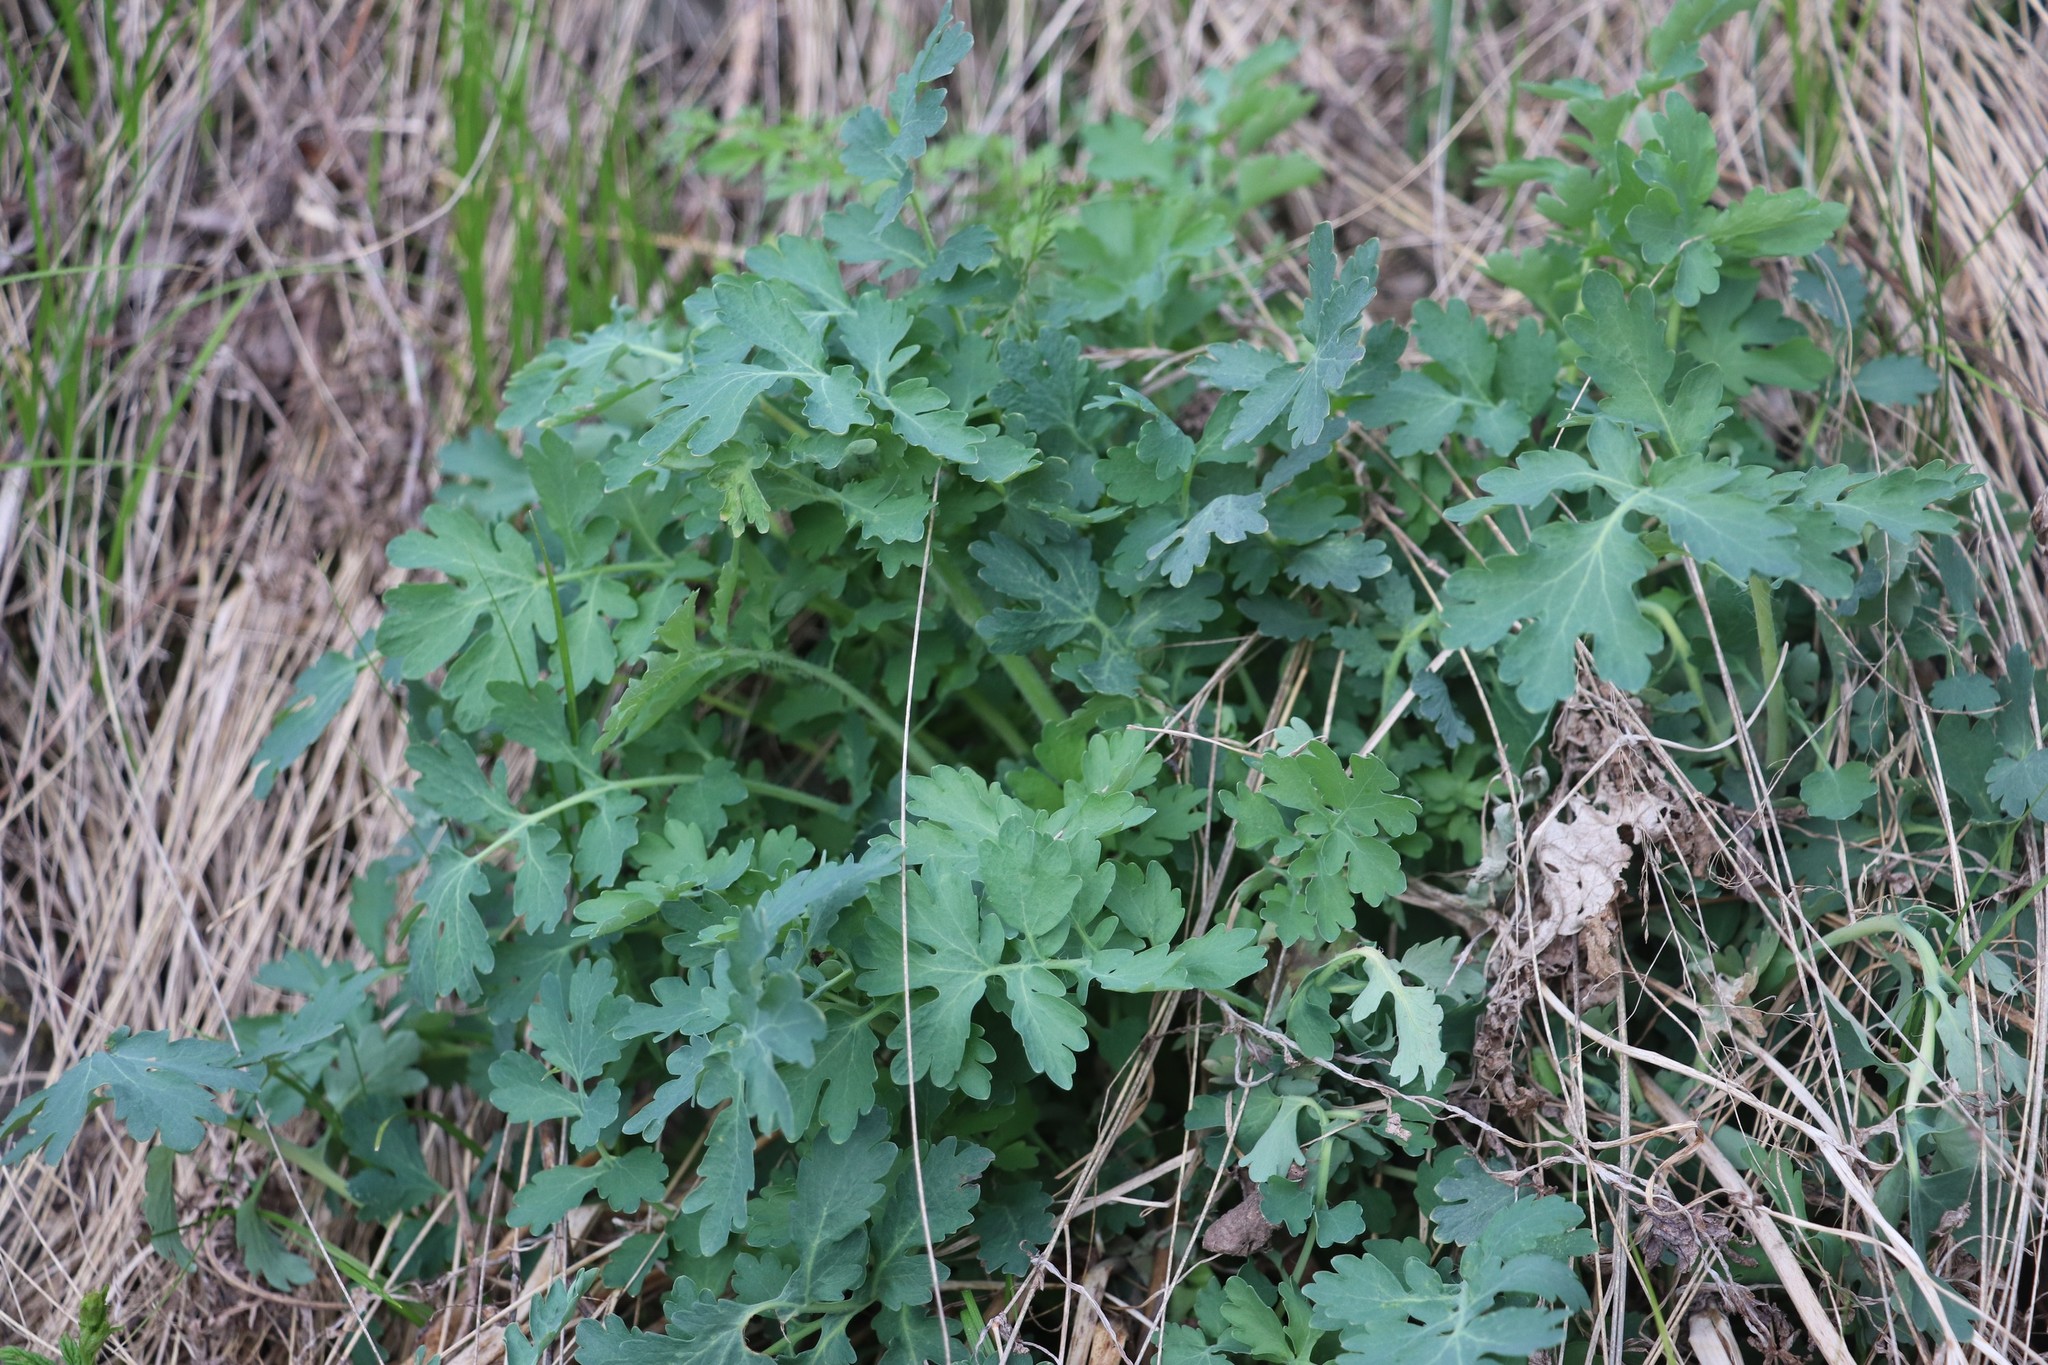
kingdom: Plantae
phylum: Tracheophyta
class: Magnoliopsida
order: Ranunculales
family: Papaveraceae
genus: Chelidonium
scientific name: Chelidonium majus
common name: Greater celandine
